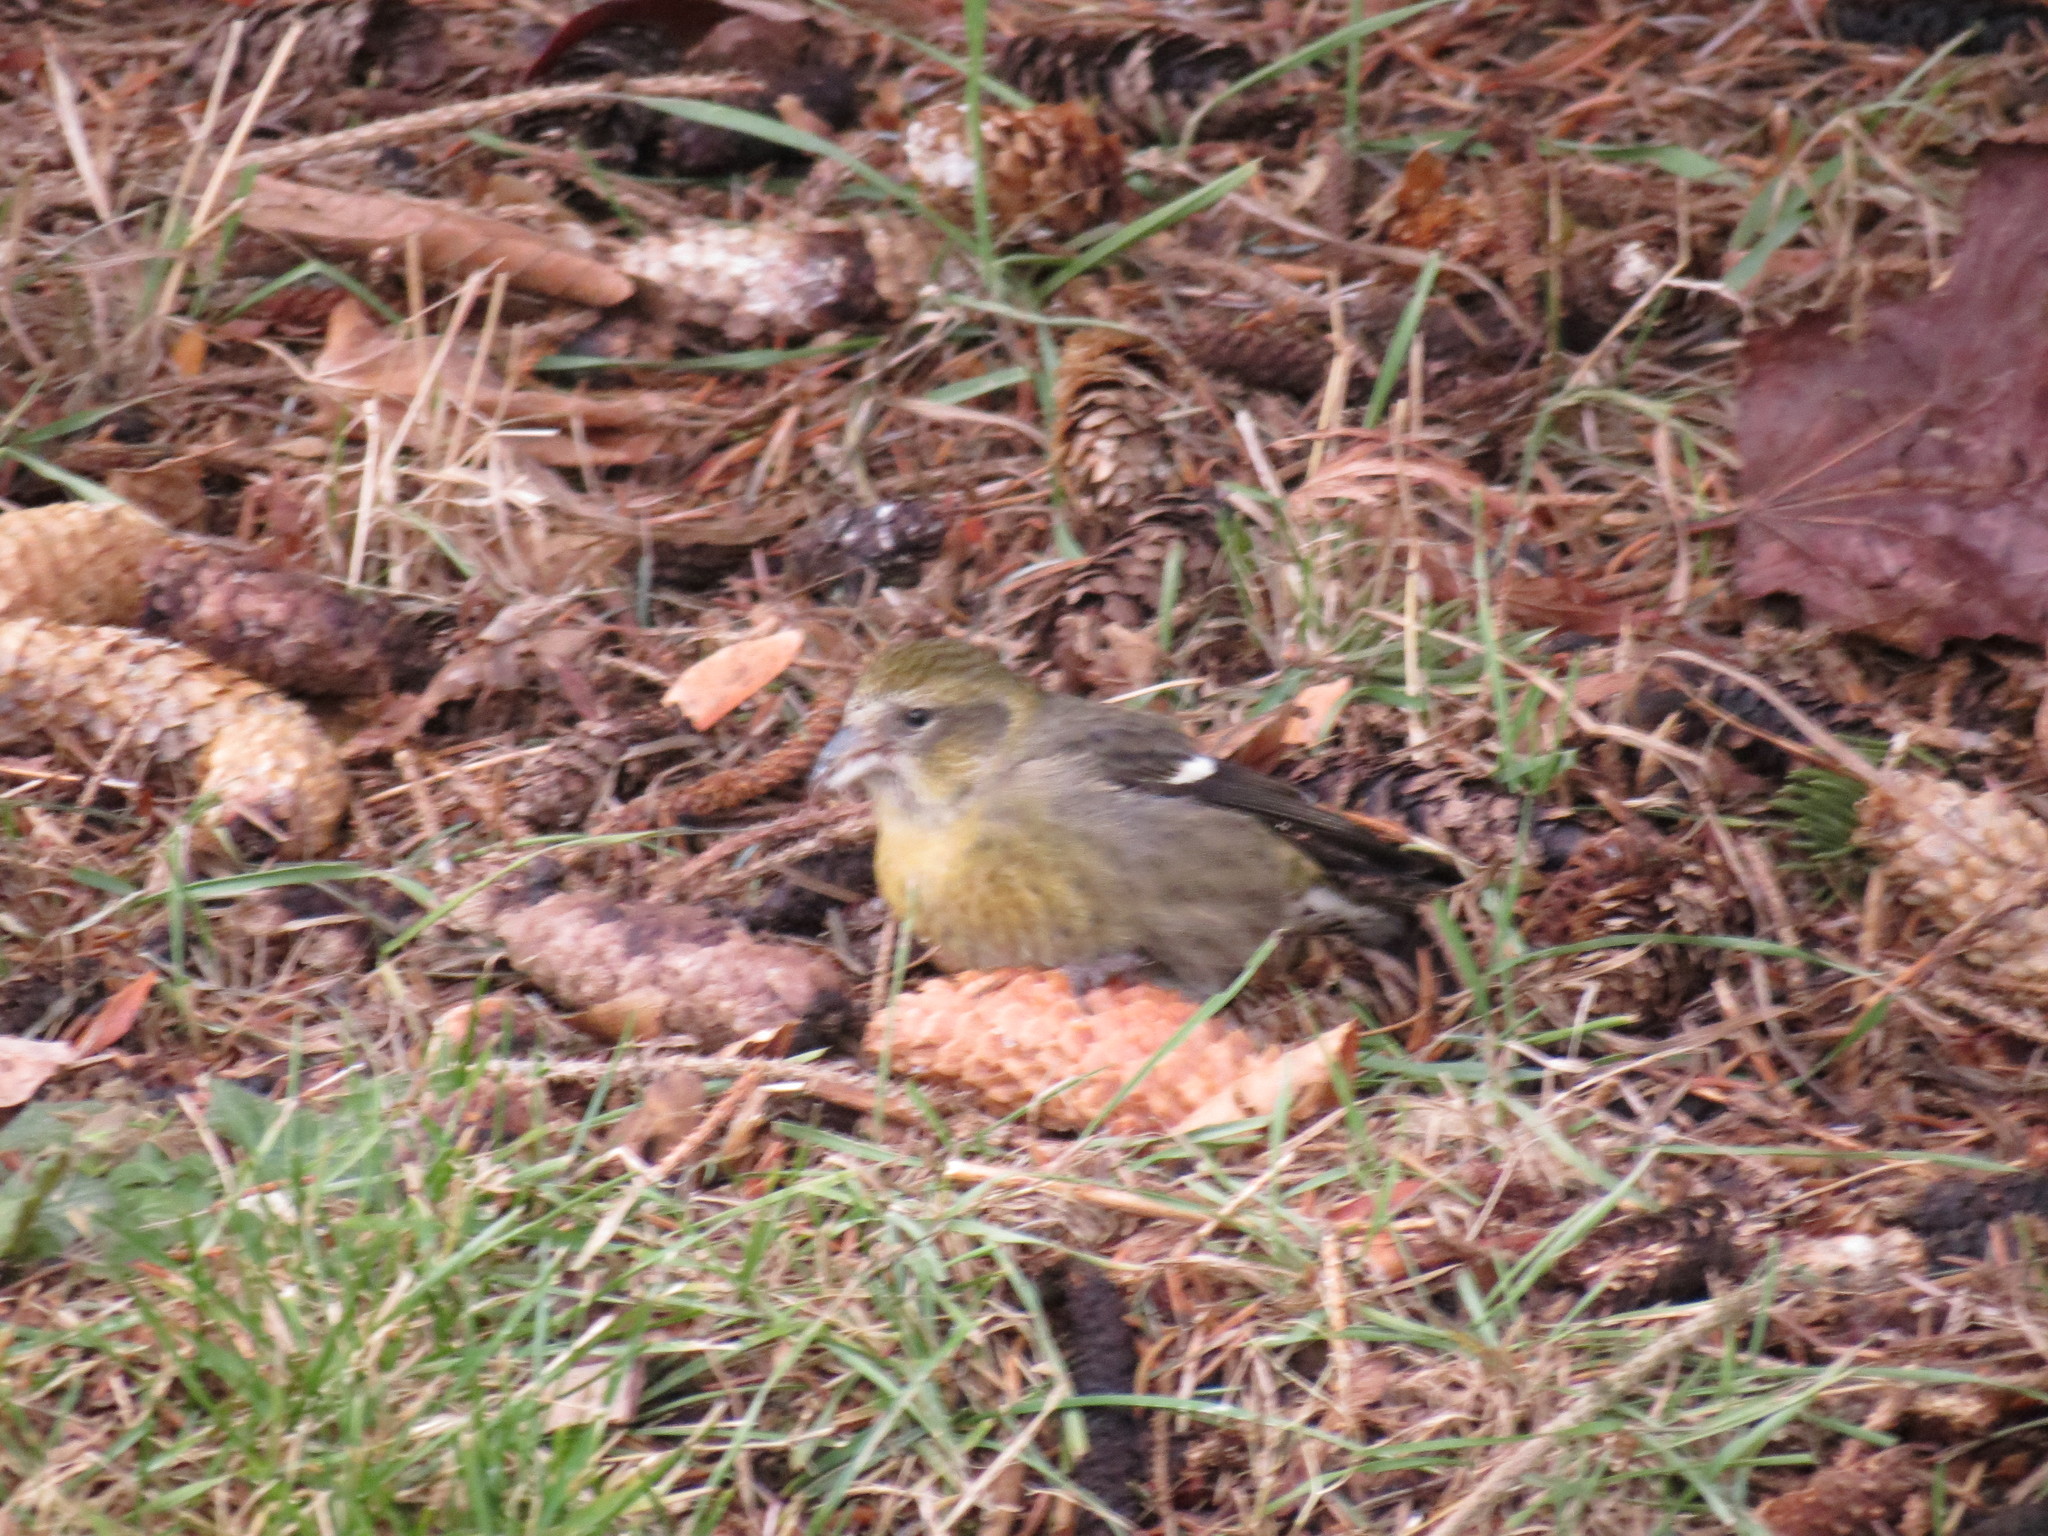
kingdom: Animalia
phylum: Chordata
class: Aves
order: Passeriformes
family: Fringillidae
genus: Loxia
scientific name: Loxia leucoptera
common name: Two-barred crossbill
